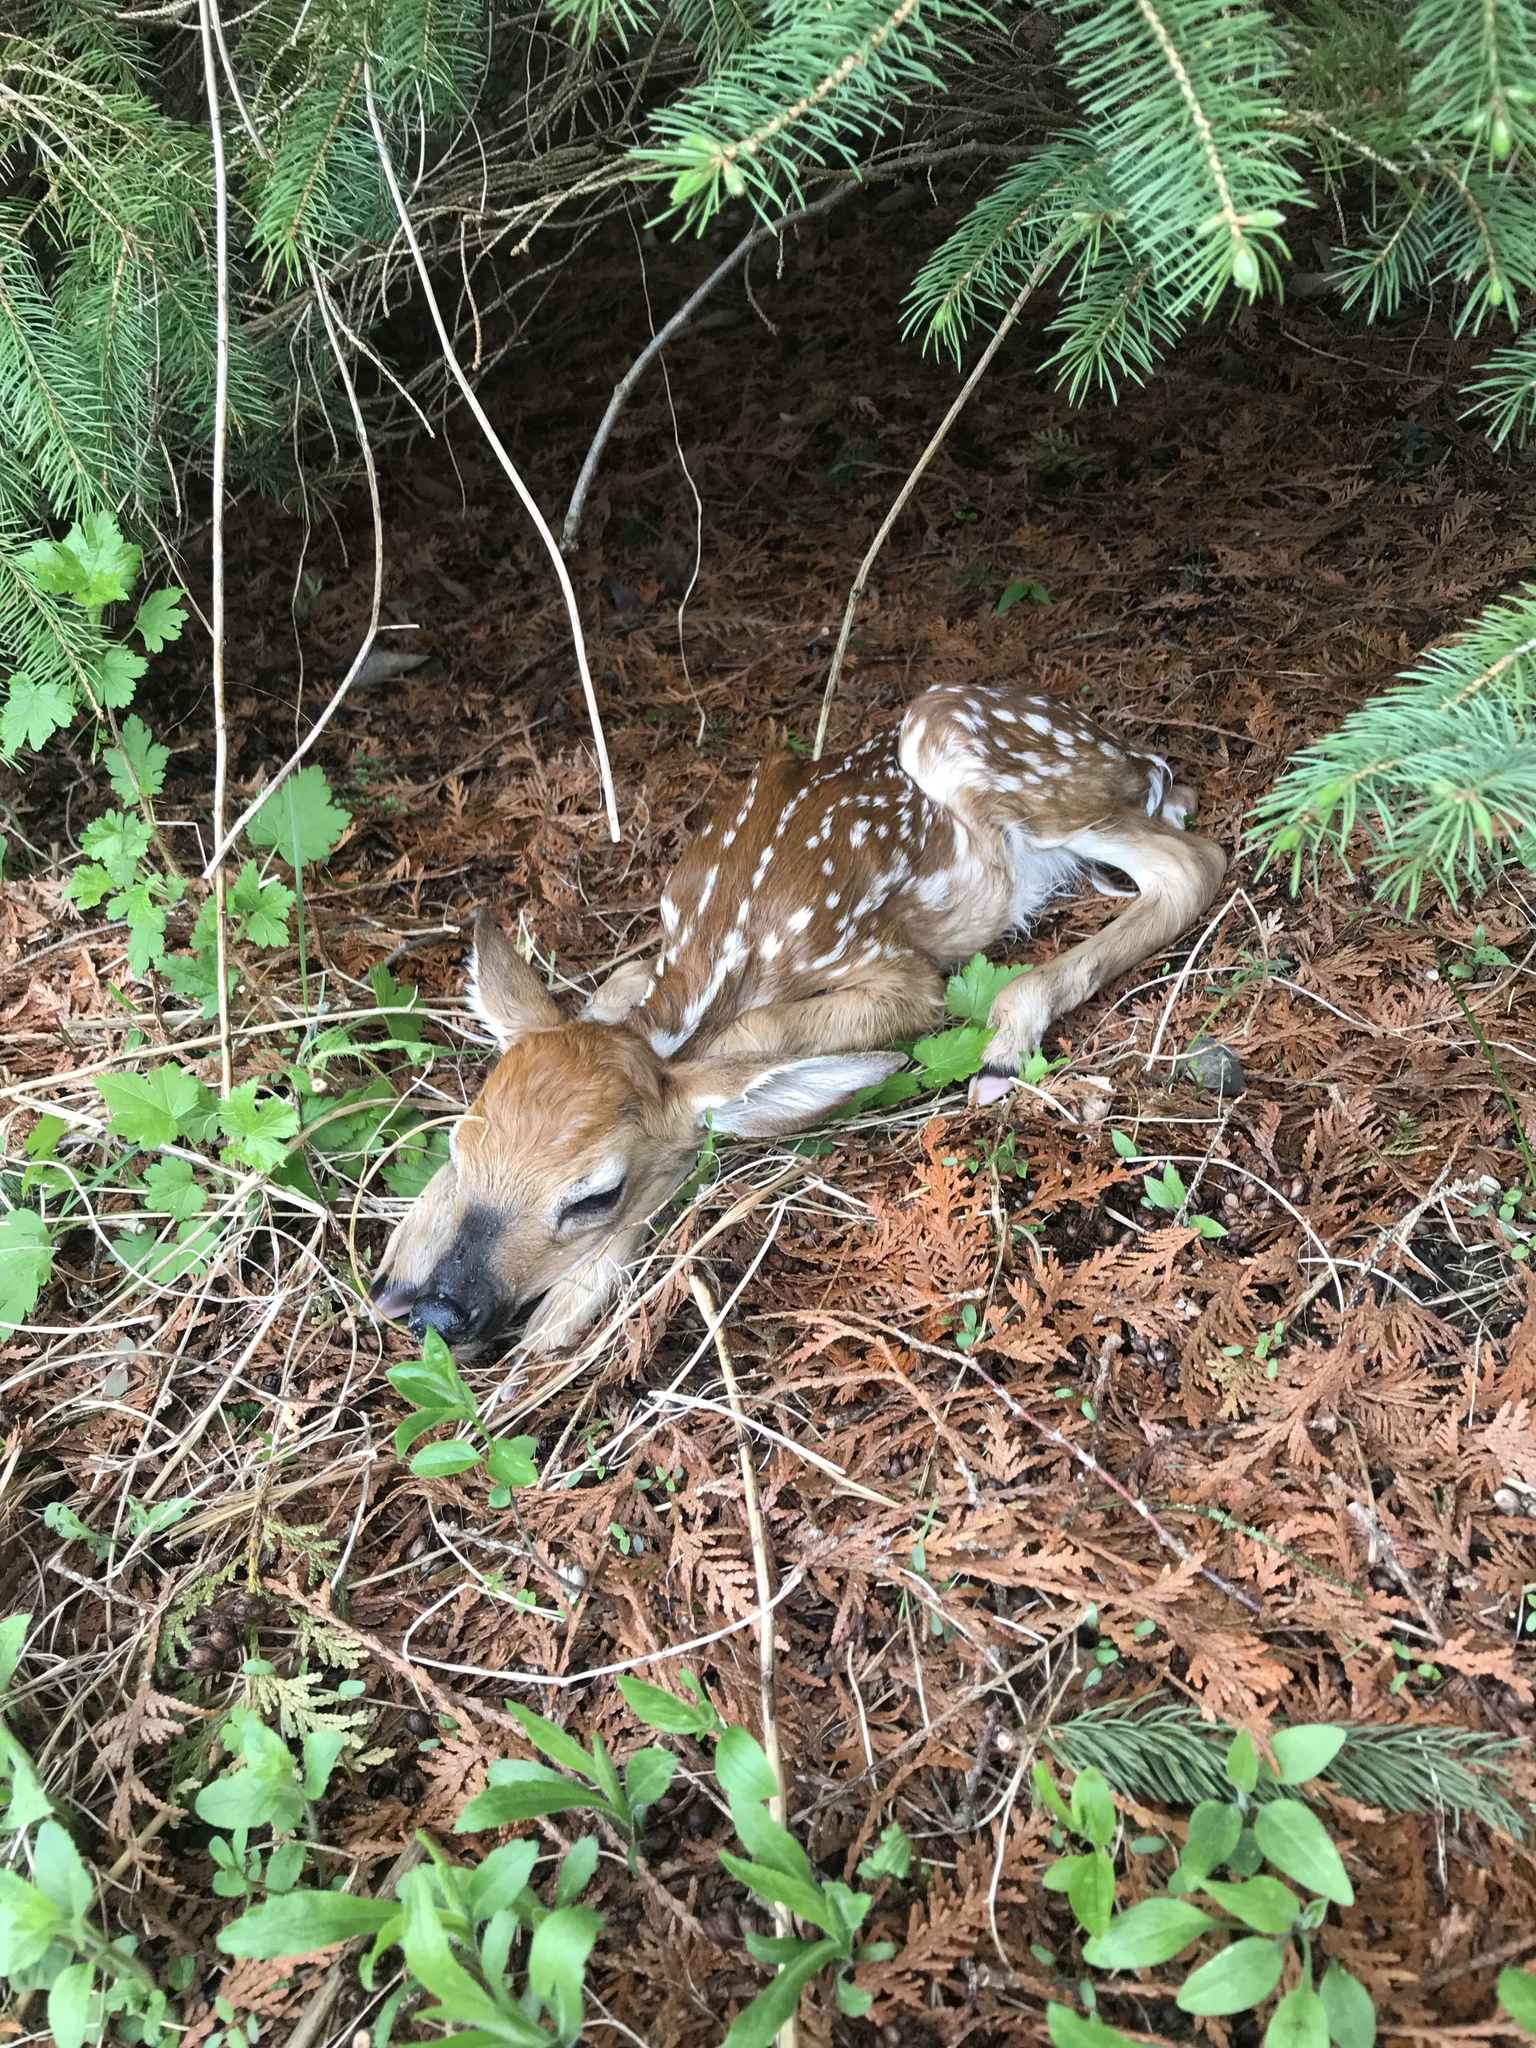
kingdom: Animalia
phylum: Chordata
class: Mammalia
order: Artiodactyla
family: Cervidae
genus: Odocoileus
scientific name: Odocoileus virginianus
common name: White-tailed deer
